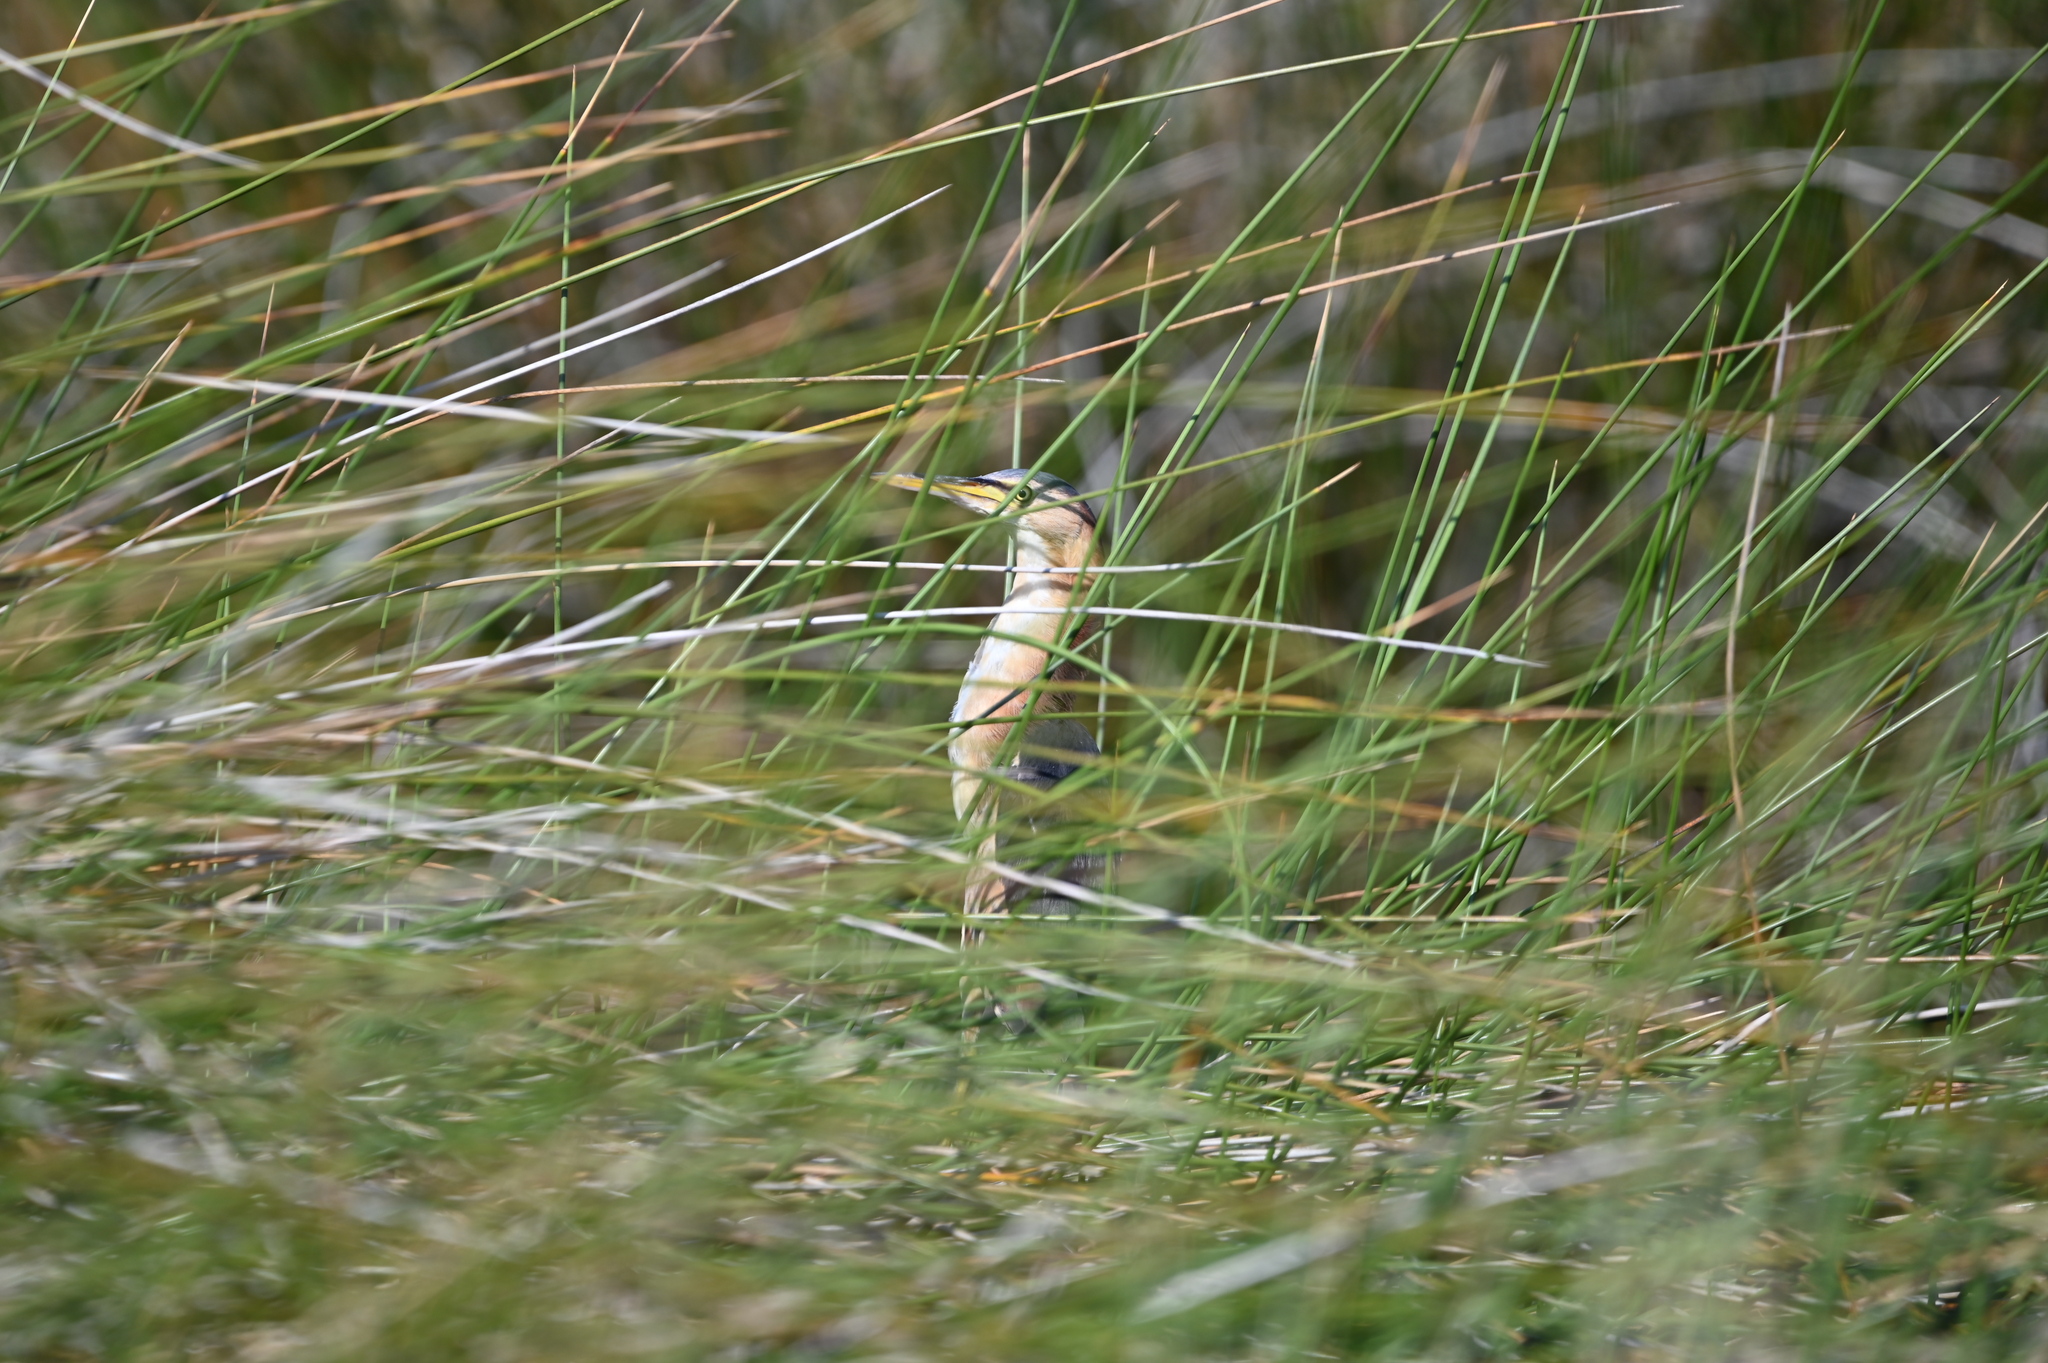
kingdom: Animalia
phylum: Chordata
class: Aves
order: Pelecaniformes
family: Ardeidae
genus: Ixobrychus
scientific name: Ixobrychus exilis
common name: Least bittern
